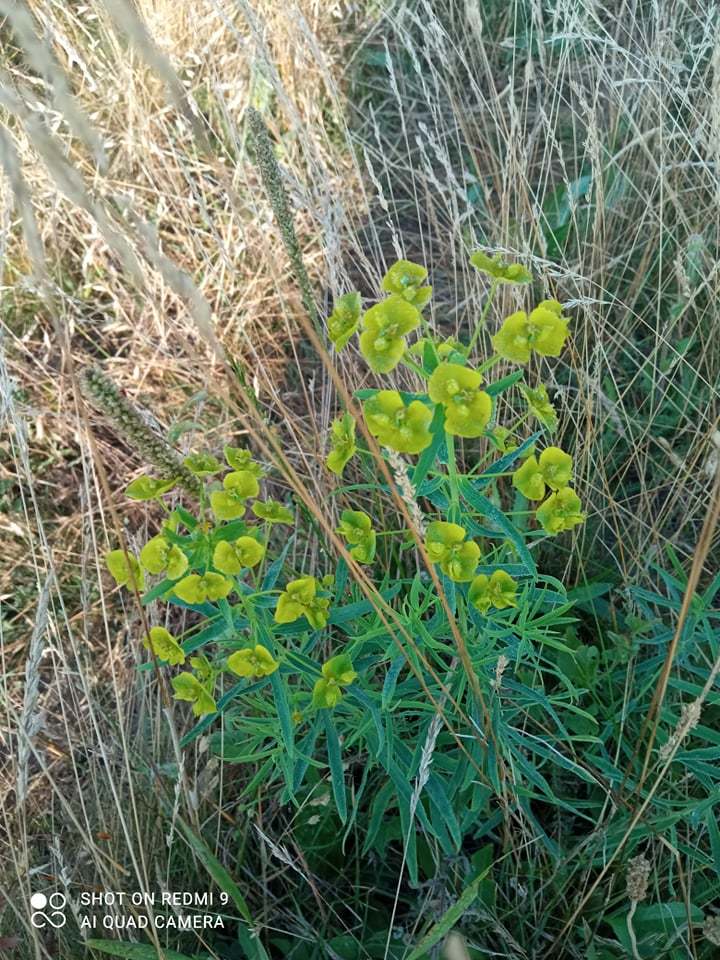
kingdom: Plantae
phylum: Tracheophyta
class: Magnoliopsida
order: Malpighiales
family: Euphorbiaceae
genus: Euphorbia
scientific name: Euphorbia saratoi
